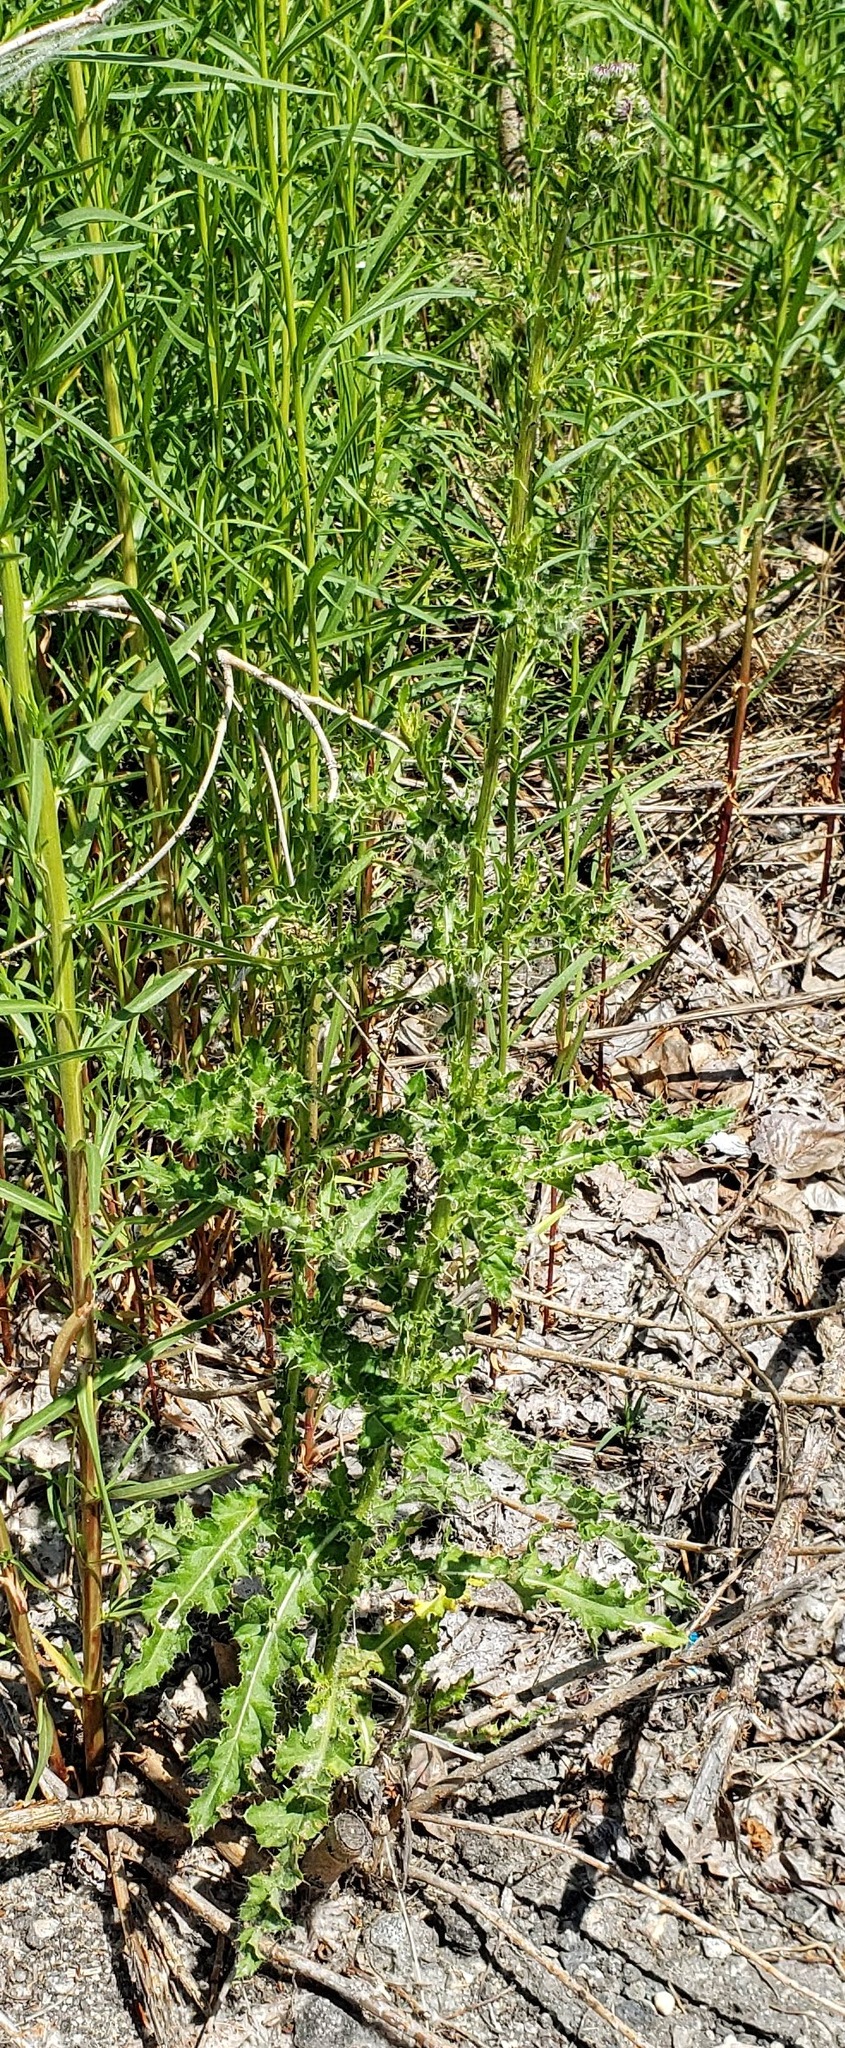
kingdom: Plantae
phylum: Tracheophyta
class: Magnoliopsida
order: Asterales
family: Asteraceae
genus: Cirsium
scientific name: Cirsium arvense
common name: Creeping thistle
